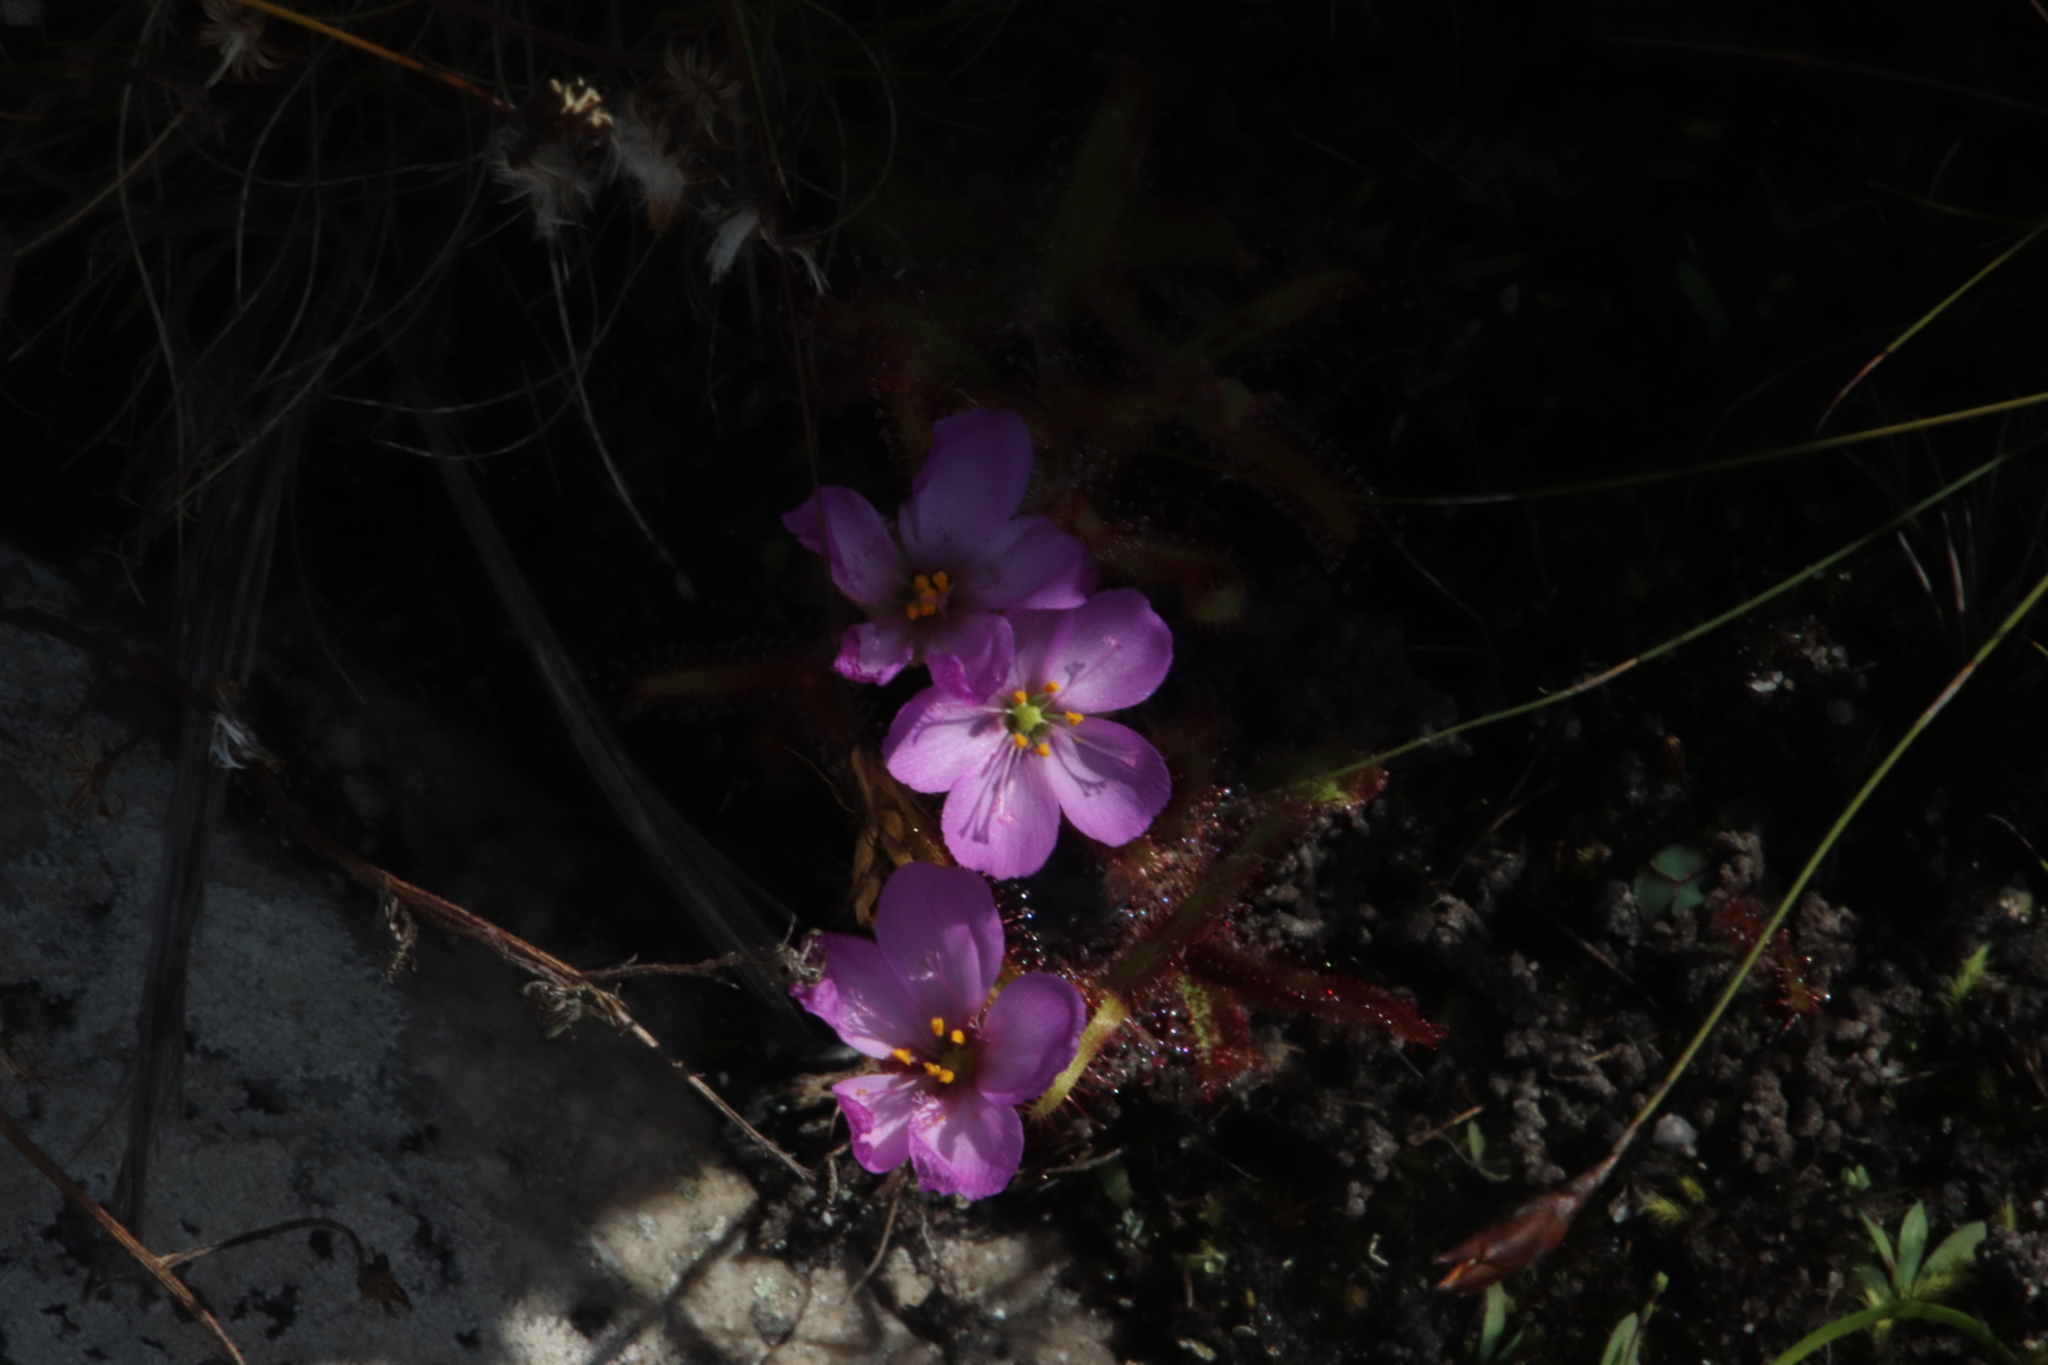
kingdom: Plantae
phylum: Tracheophyta
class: Magnoliopsida
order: Caryophyllales
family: Droseraceae
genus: Drosera
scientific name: Drosera cistiflora
